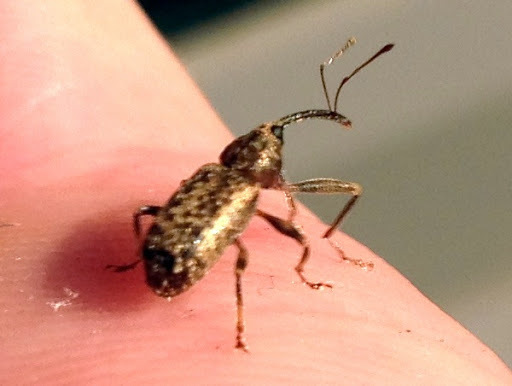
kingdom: Animalia
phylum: Arthropoda
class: Insecta
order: Coleoptera
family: Curculionidae
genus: Dorytomus
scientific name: Dorytomus
